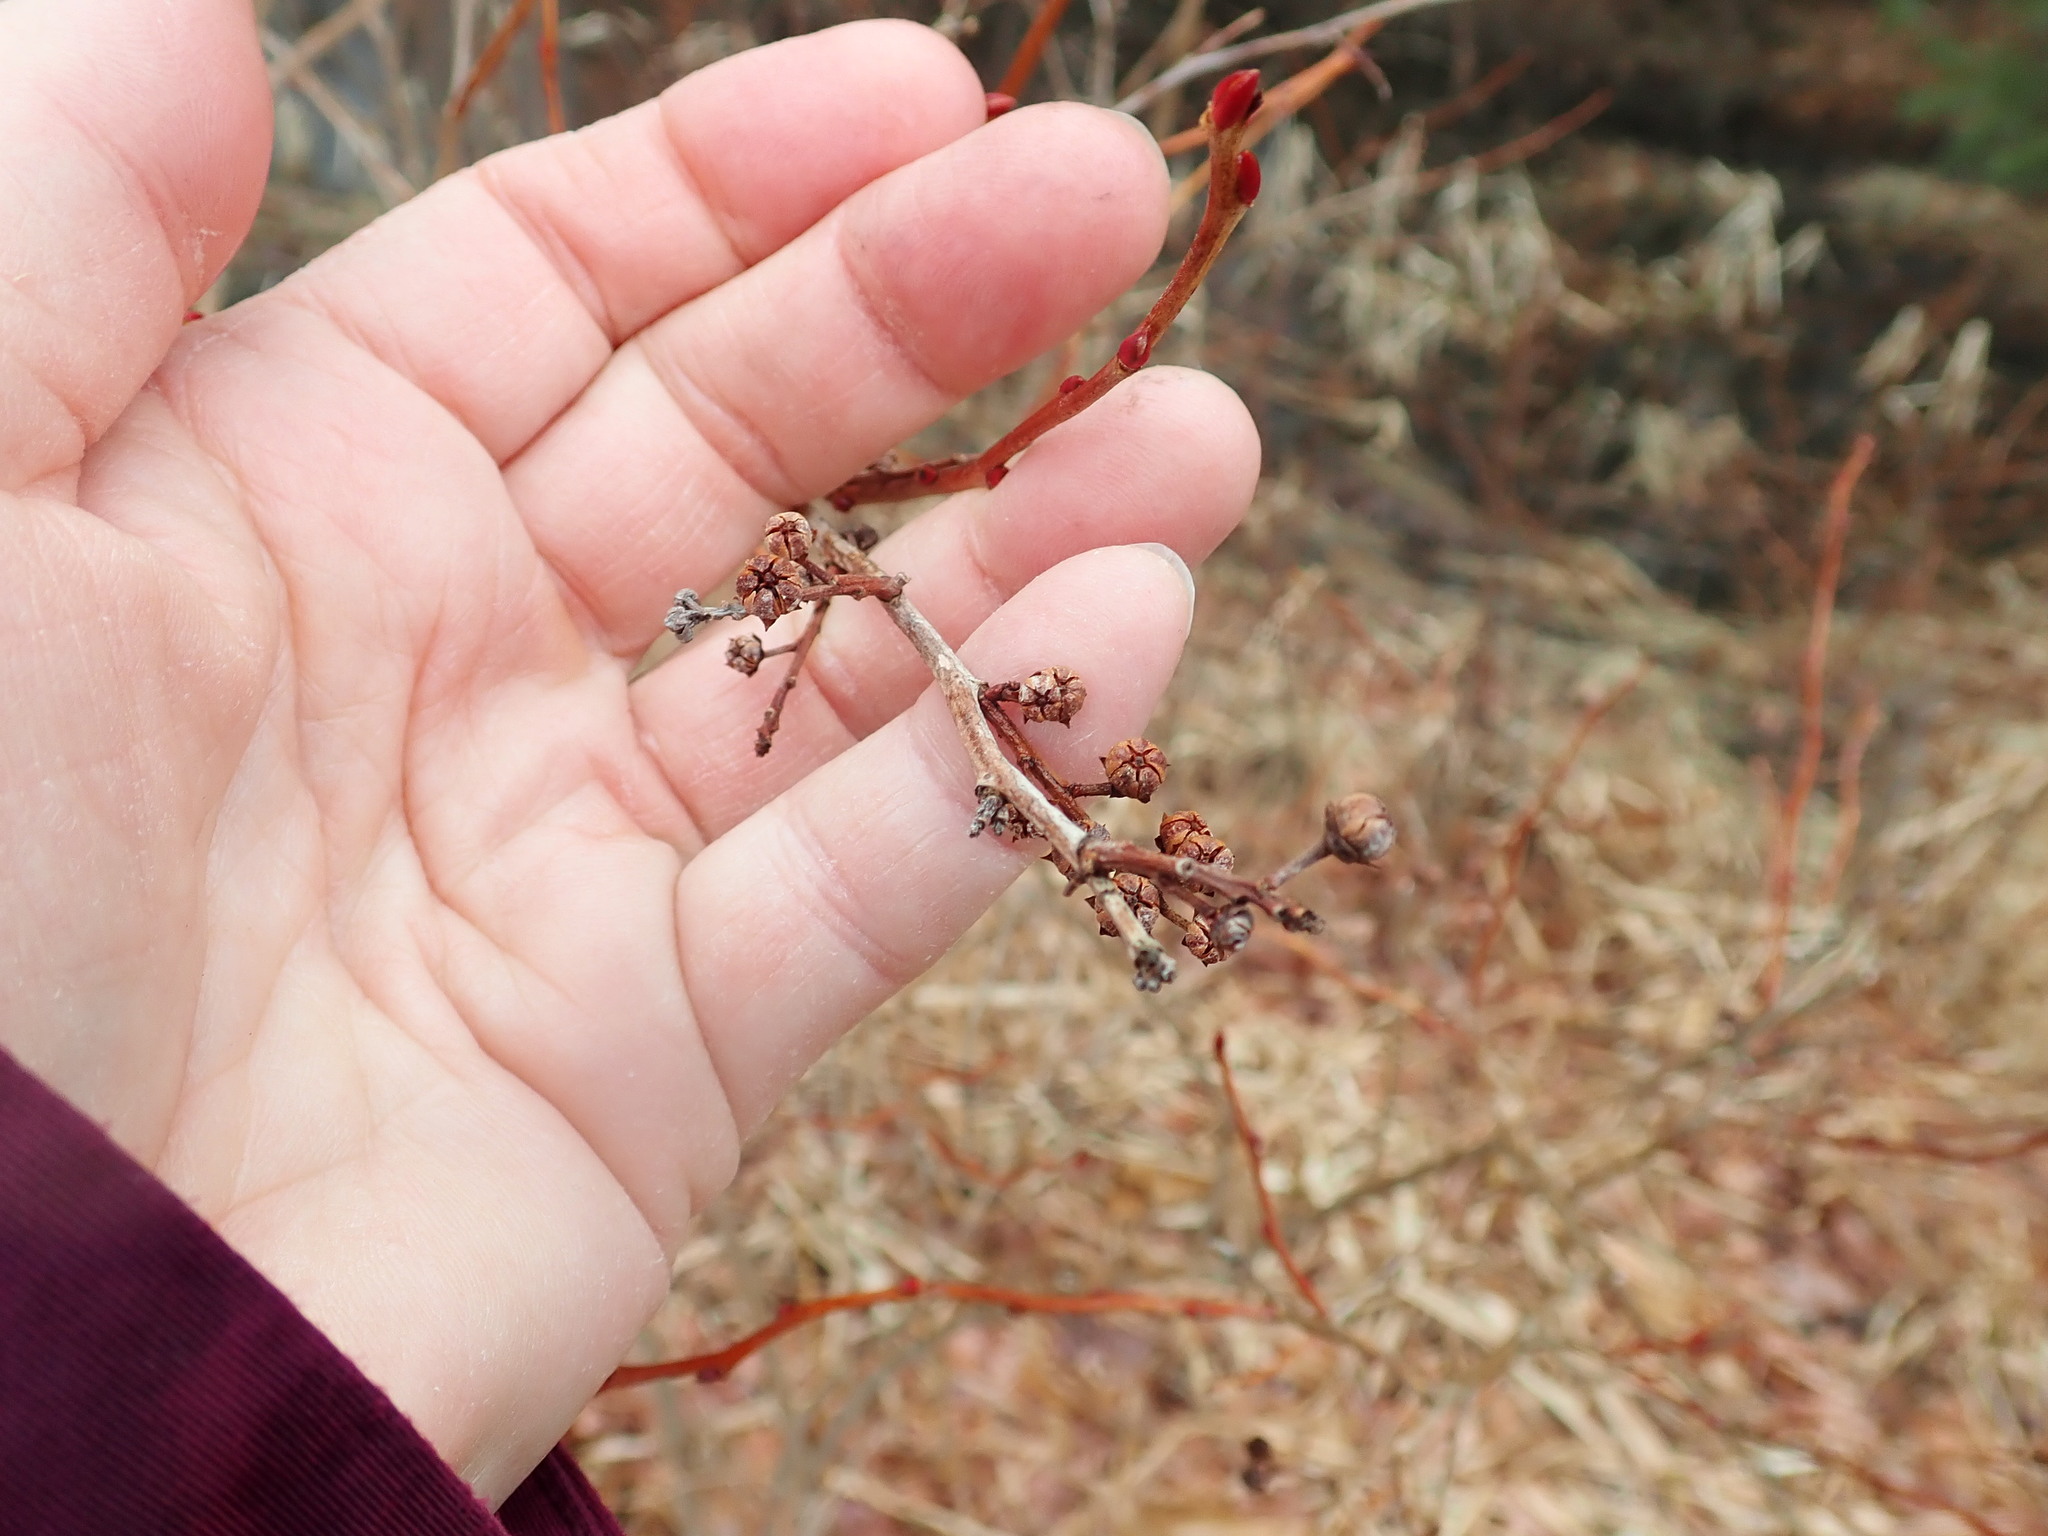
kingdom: Plantae
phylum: Tracheophyta
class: Magnoliopsida
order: Ericales
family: Ericaceae
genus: Lyonia
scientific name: Lyonia ligustrina
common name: Maleberry
